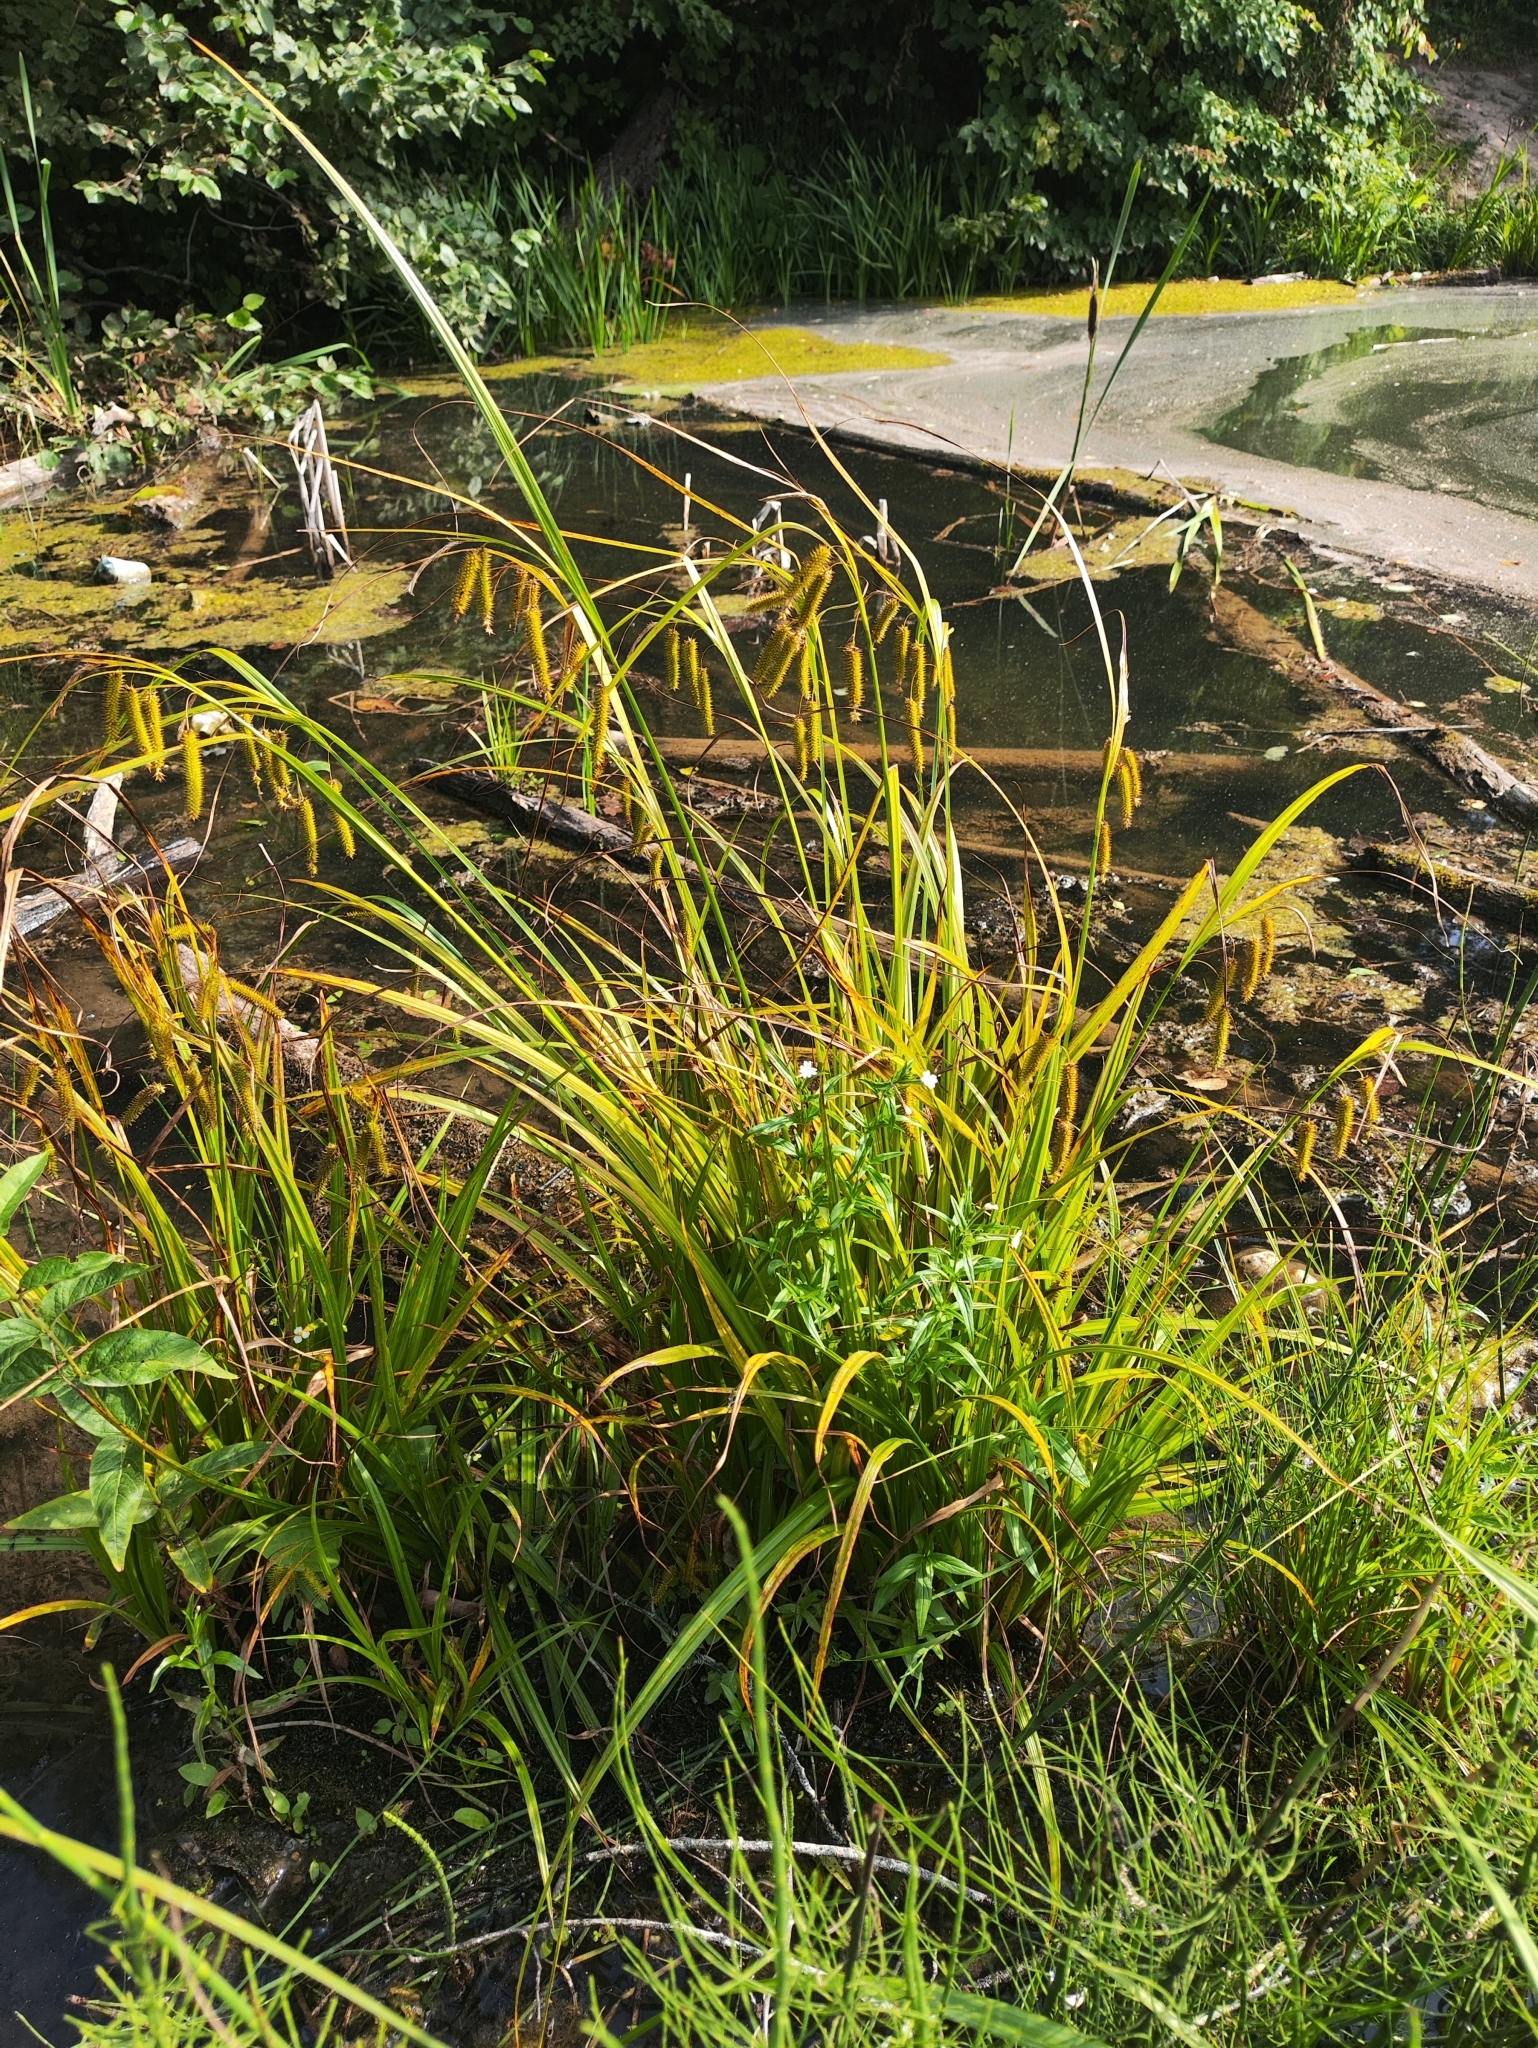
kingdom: Plantae
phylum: Tracheophyta
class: Liliopsida
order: Poales
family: Cyperaceae
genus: Carex
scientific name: Carex pseudocyperus
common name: Cyperus sedge
